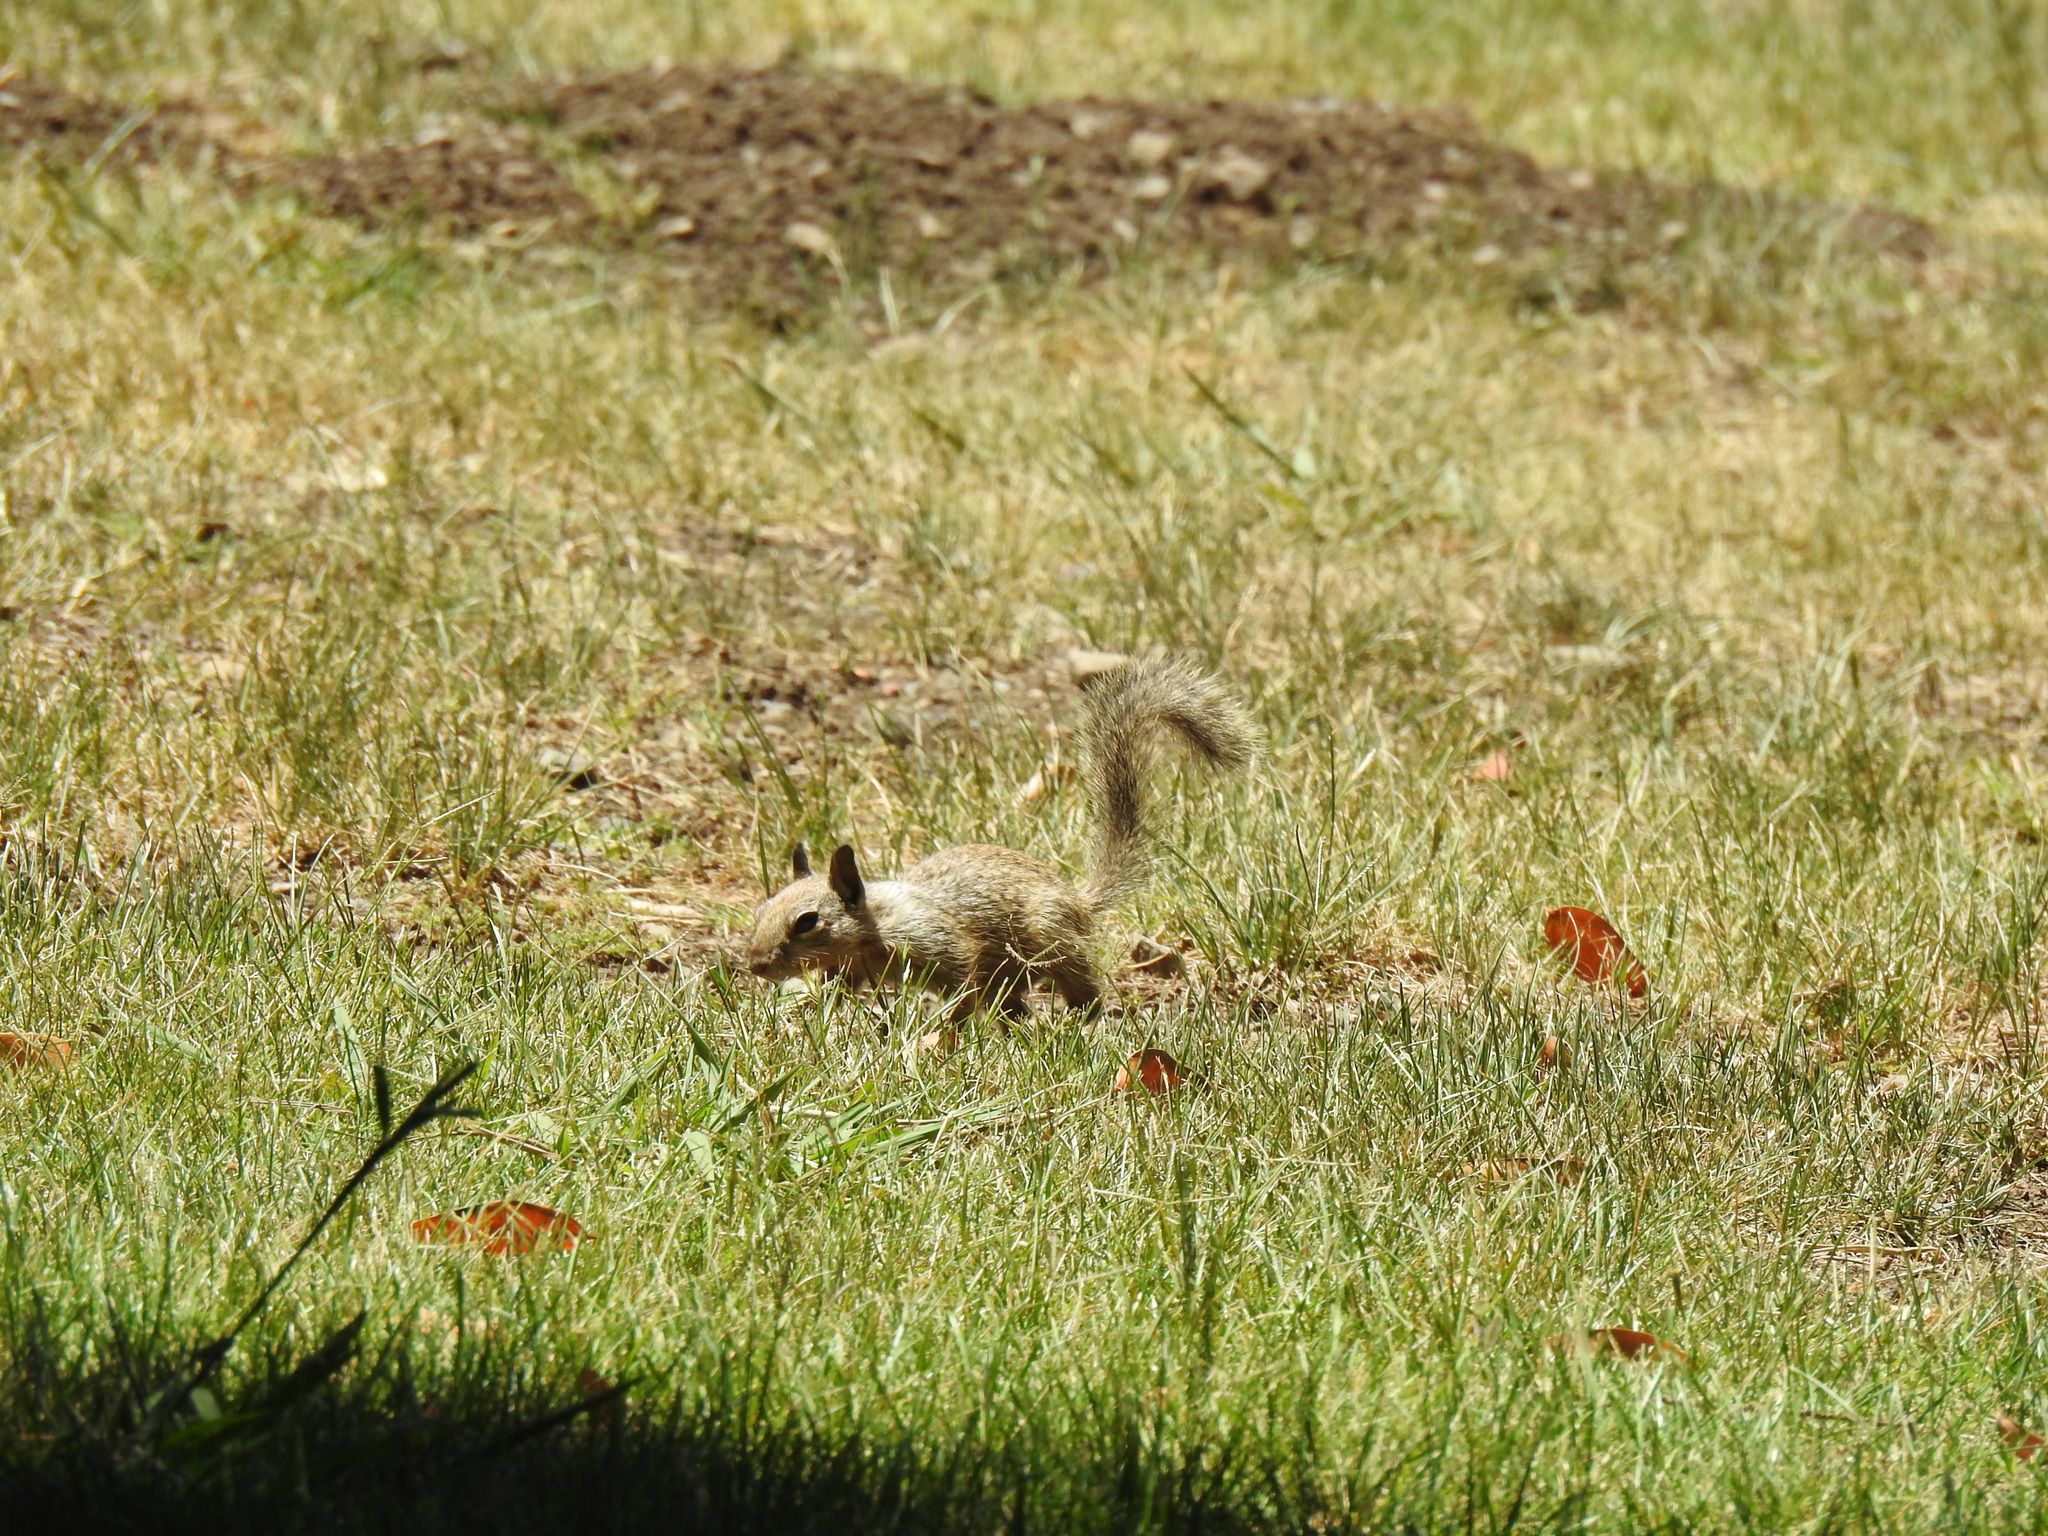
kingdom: Animalia
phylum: Chordata
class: Mammalia
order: Rodentia
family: Sciuridae
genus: Otospermophilus
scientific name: Otospermophilus beecheyi
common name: California ground squirrel
